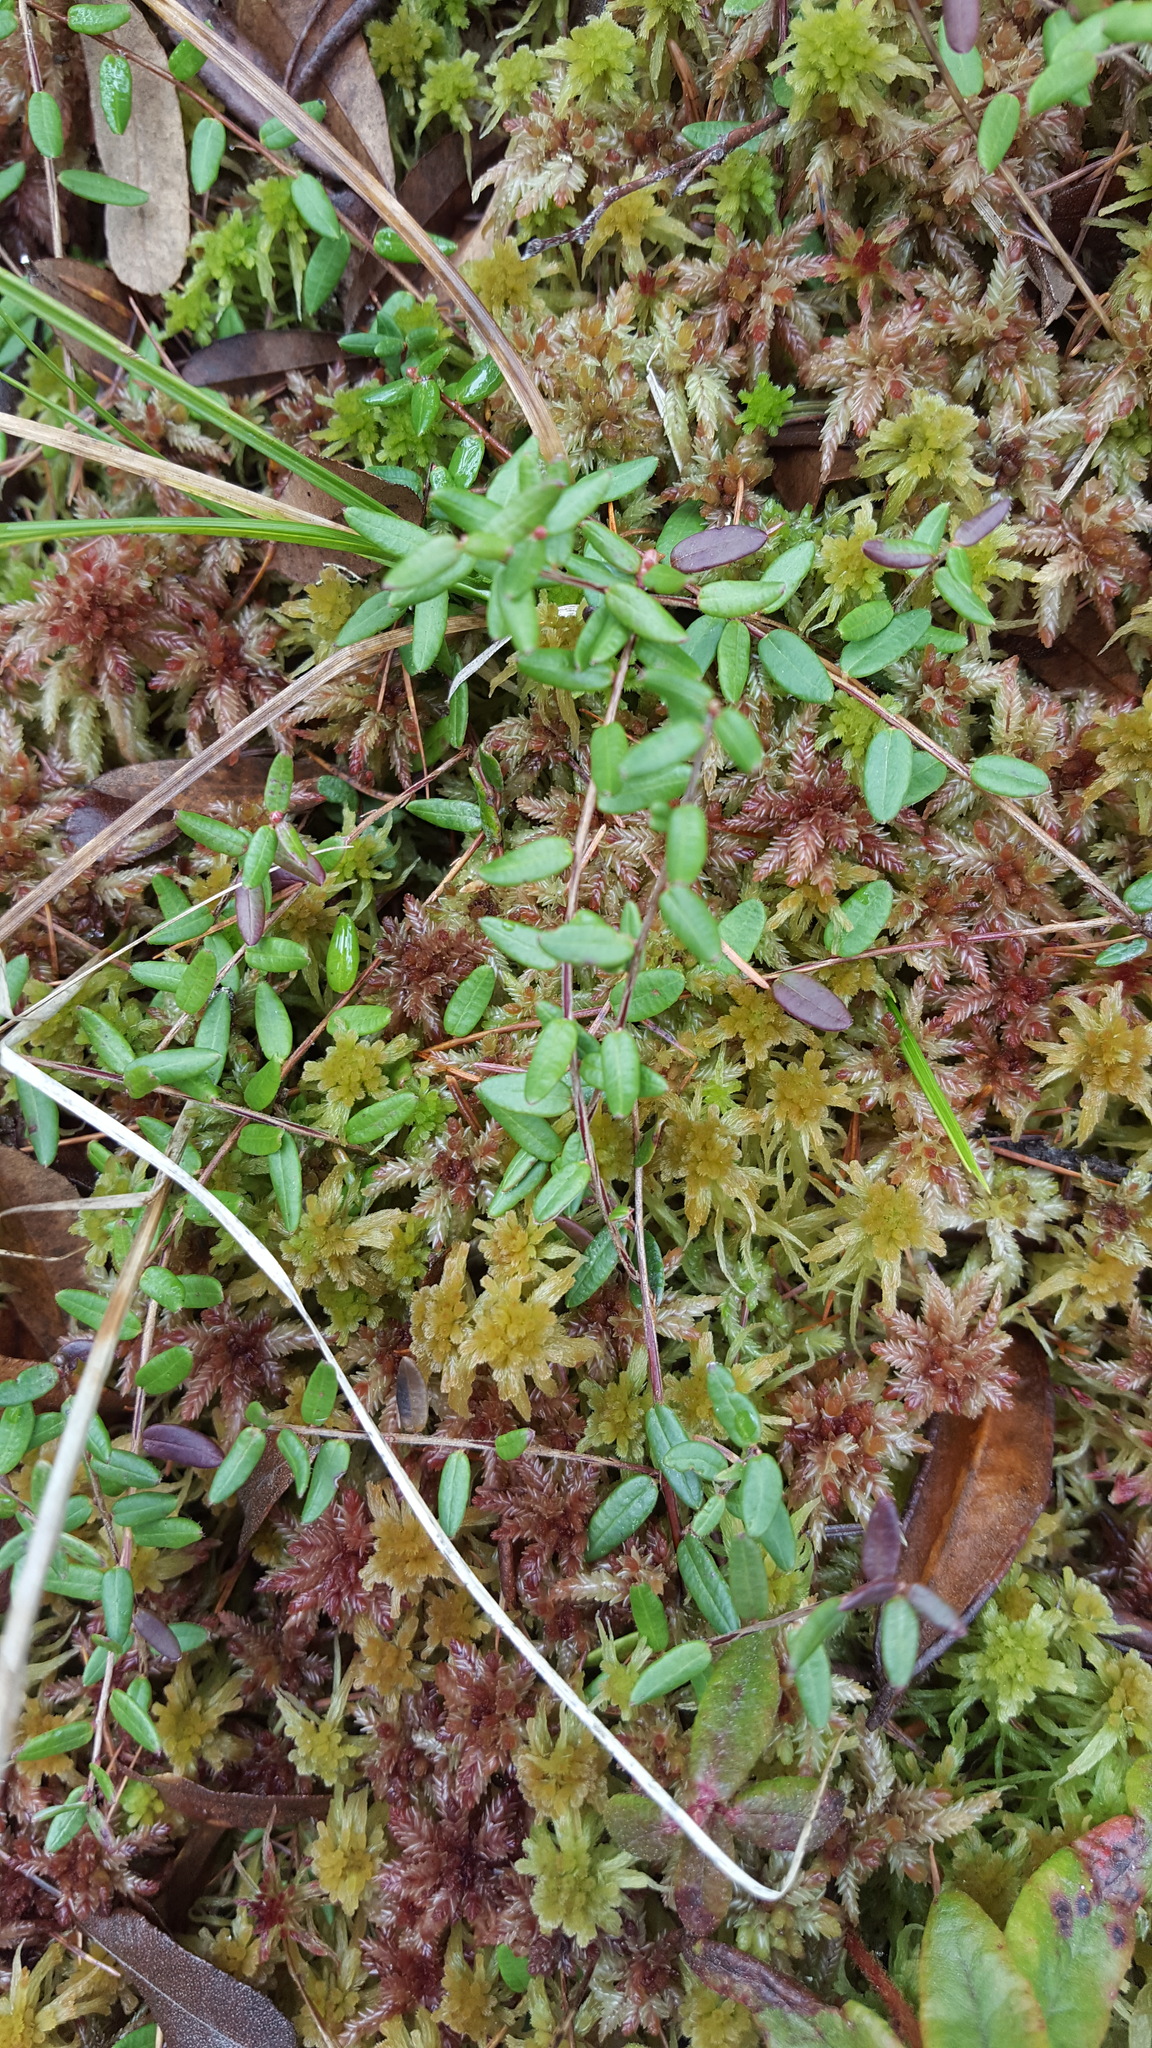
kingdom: Plantae
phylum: Tracheophyta
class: Magnoliopsida
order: Ericales
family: Ericaceae
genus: Vaccinium
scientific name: Vaccinium oxycoccos
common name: Cranberry
